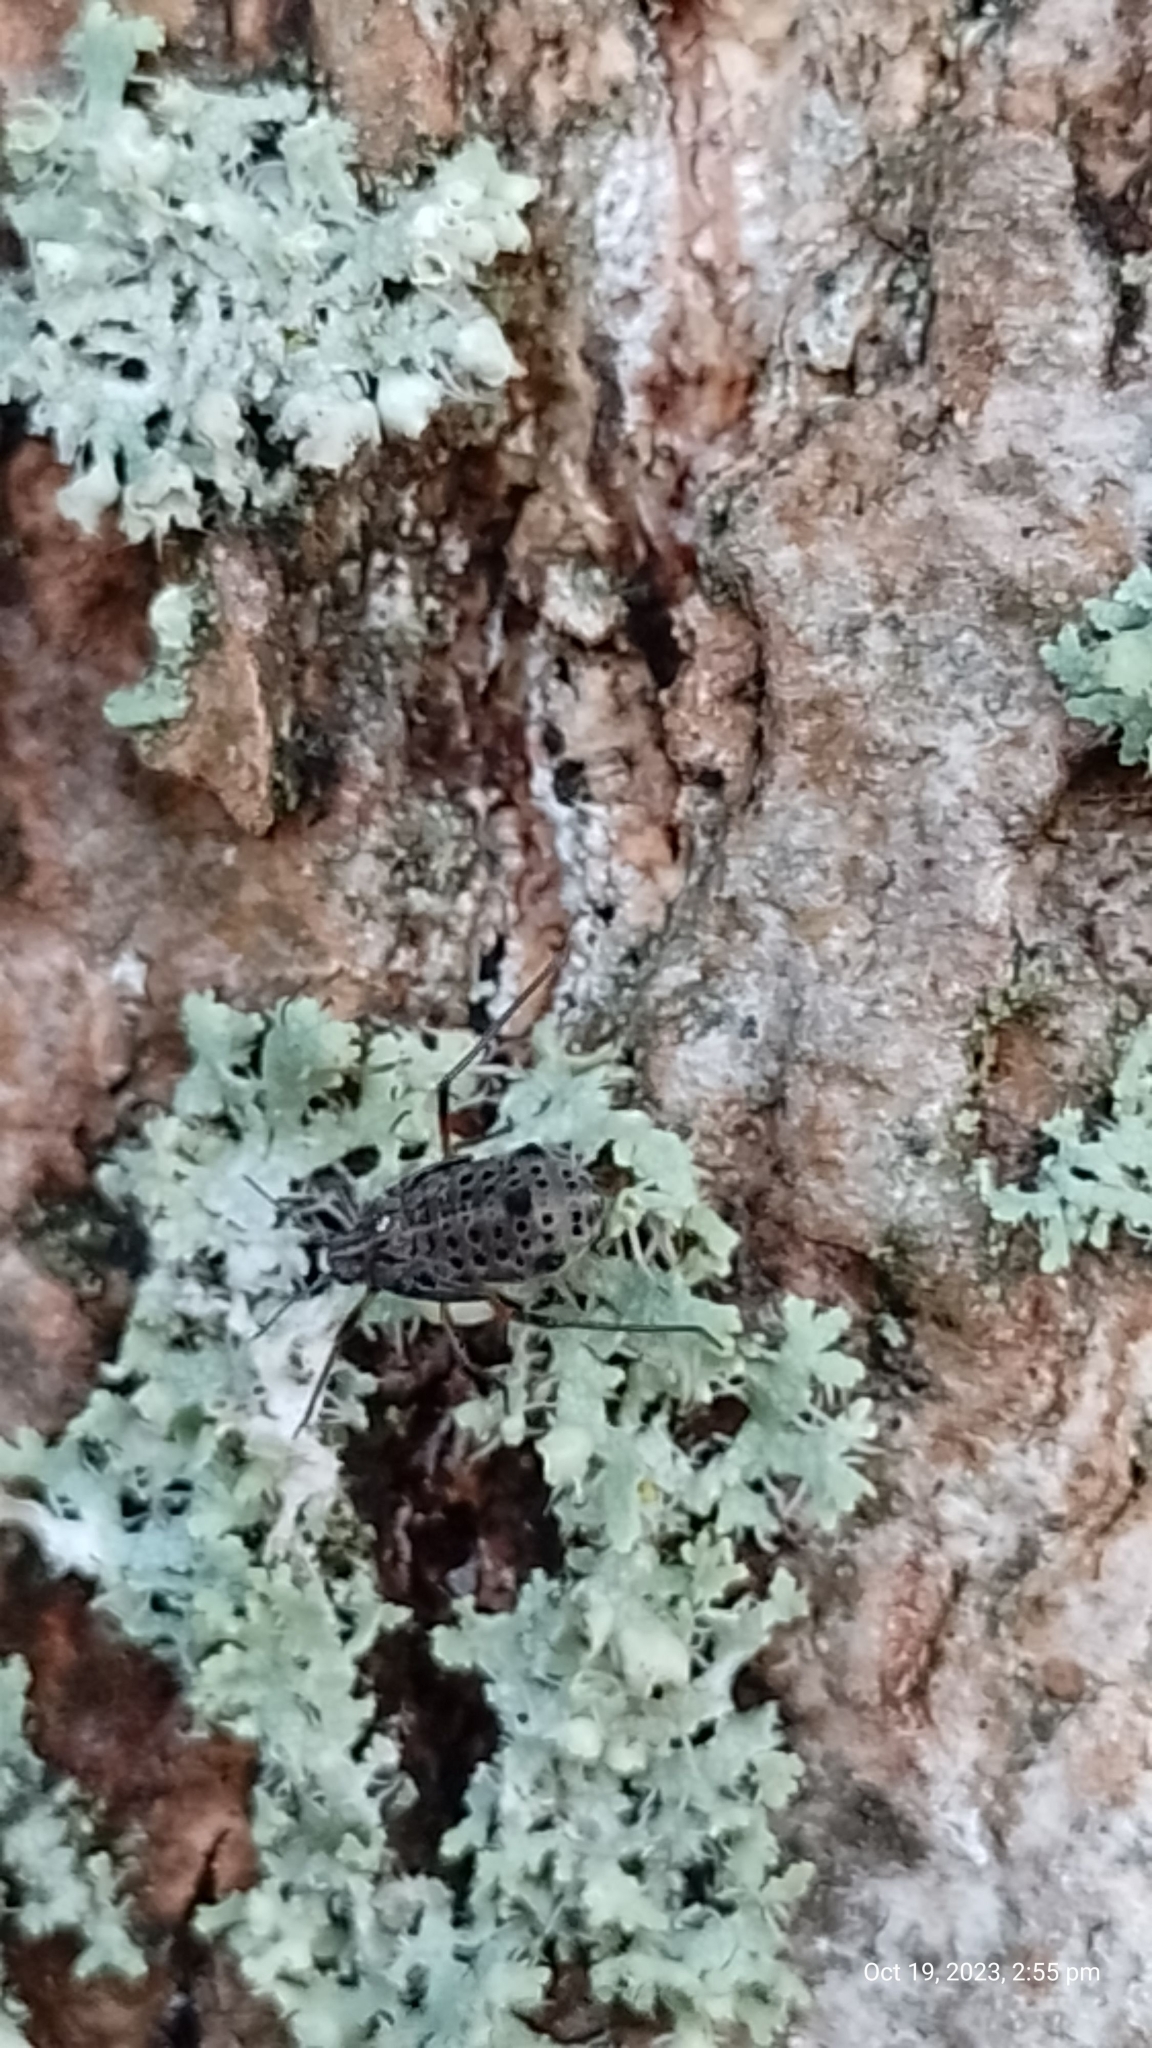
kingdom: Animalia
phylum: Arthropoda
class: Insecta
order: Hemiptera
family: Aphididae
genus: Tuberolachnus
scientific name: Tuberolachnus salignus
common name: Giant willow aphid
